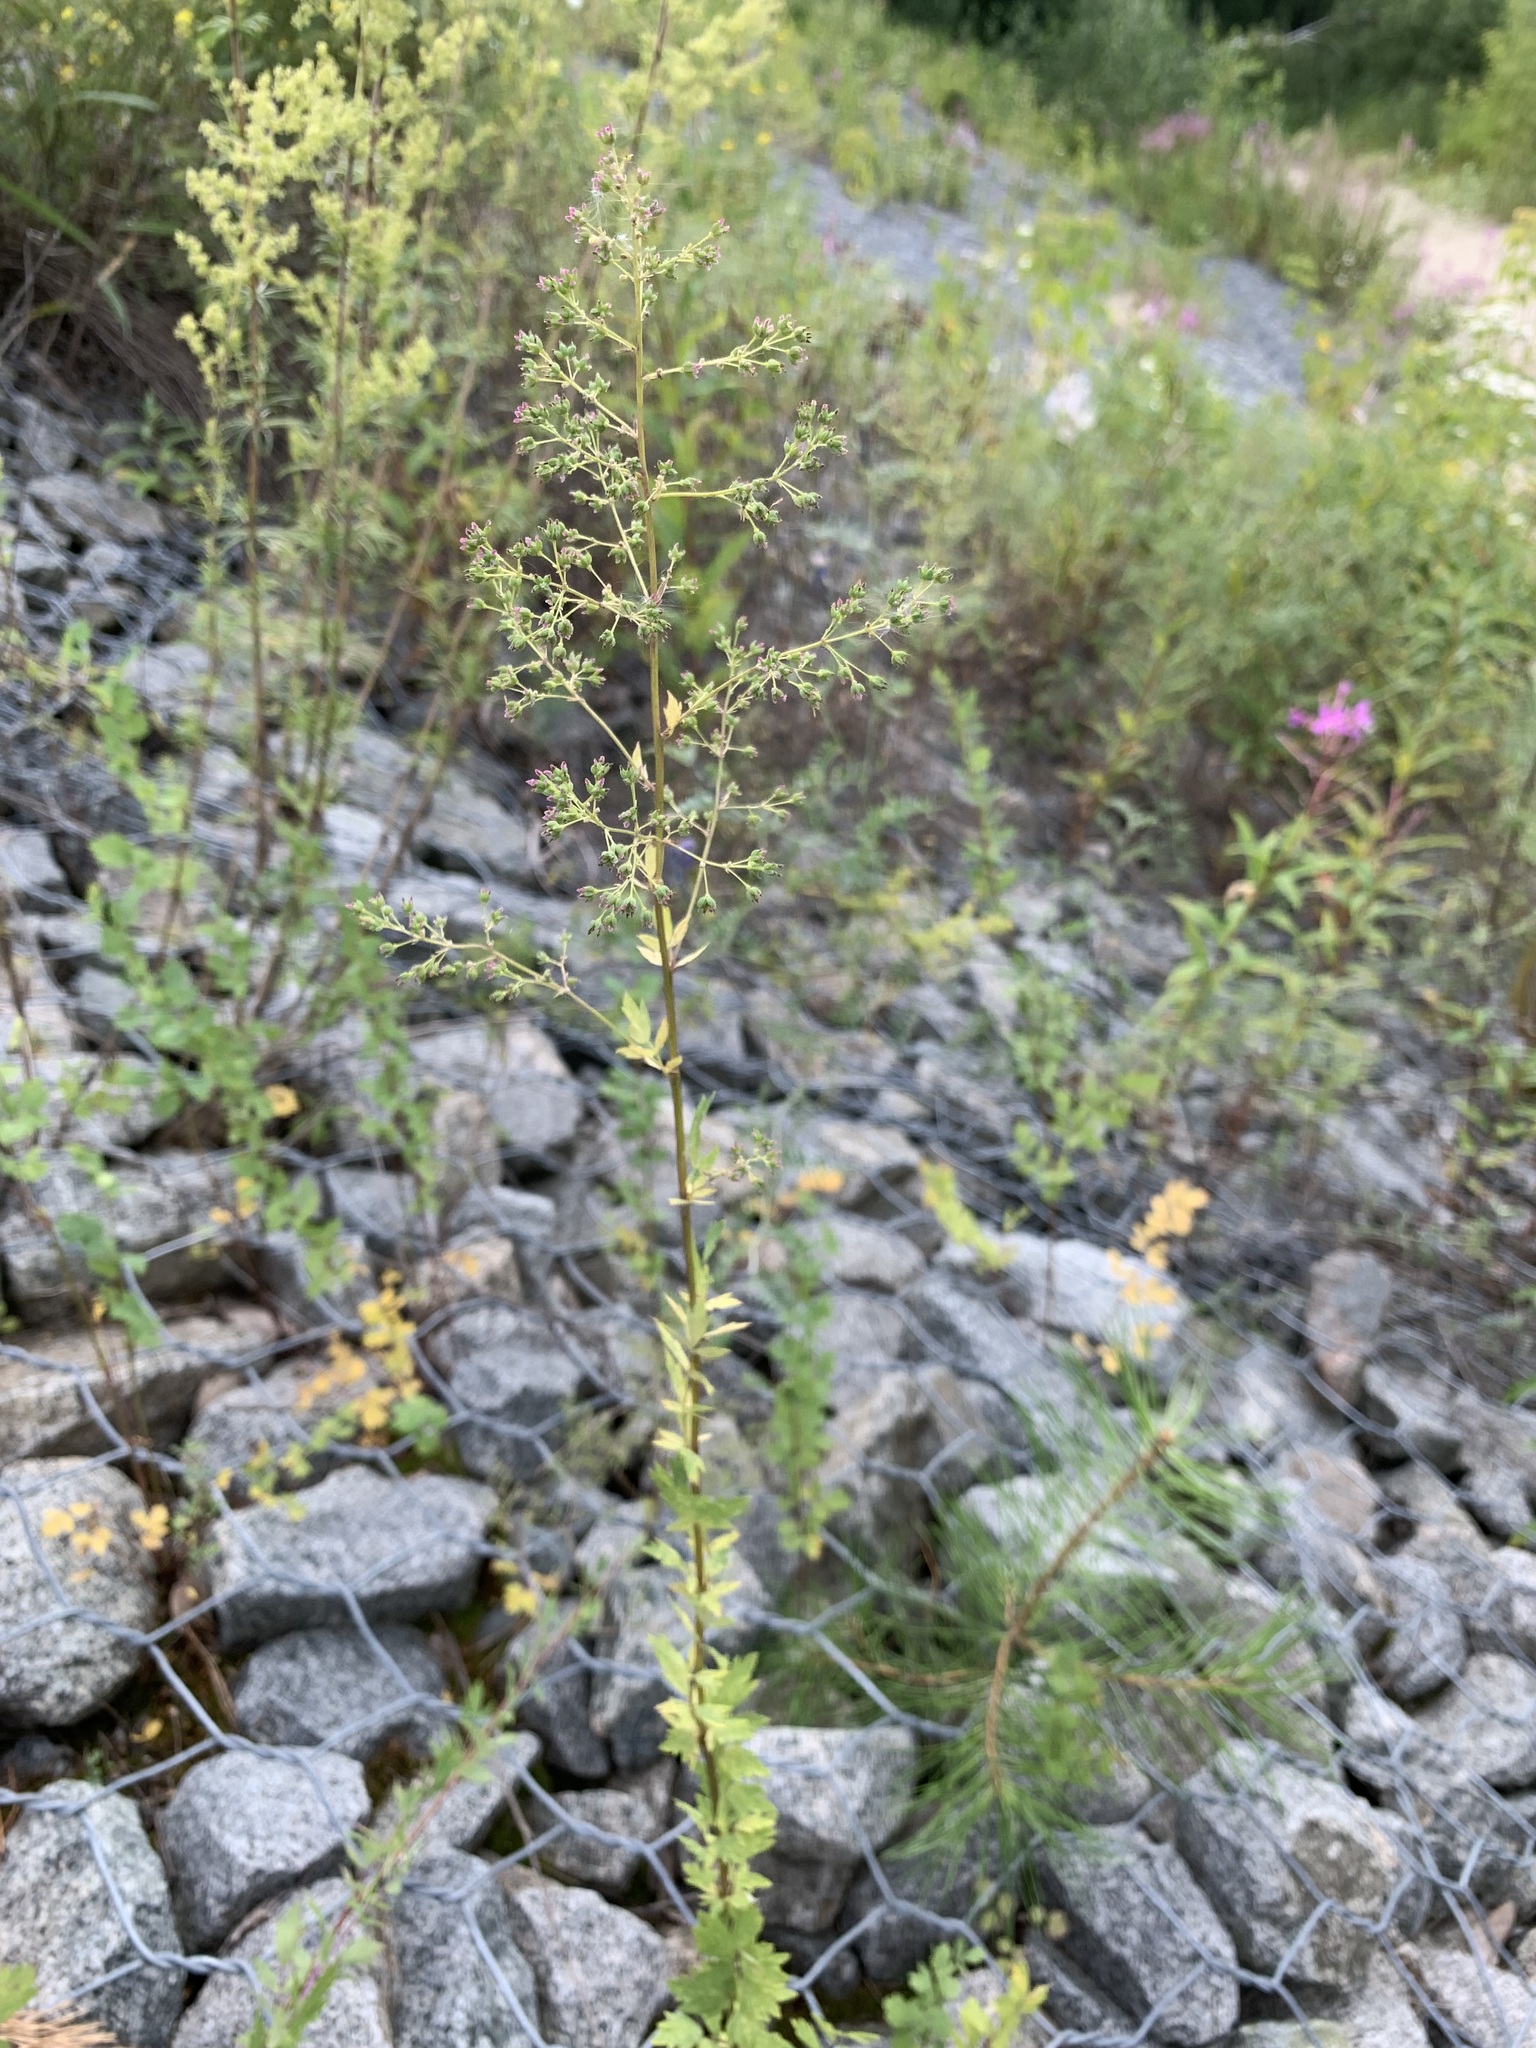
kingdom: Plantae
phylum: Tracheophyta
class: Magnoliopsida
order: Ranunculales
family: Ranunculaceae
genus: Thalictrum
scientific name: Thalictrum simplex
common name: Small meadow-rue
